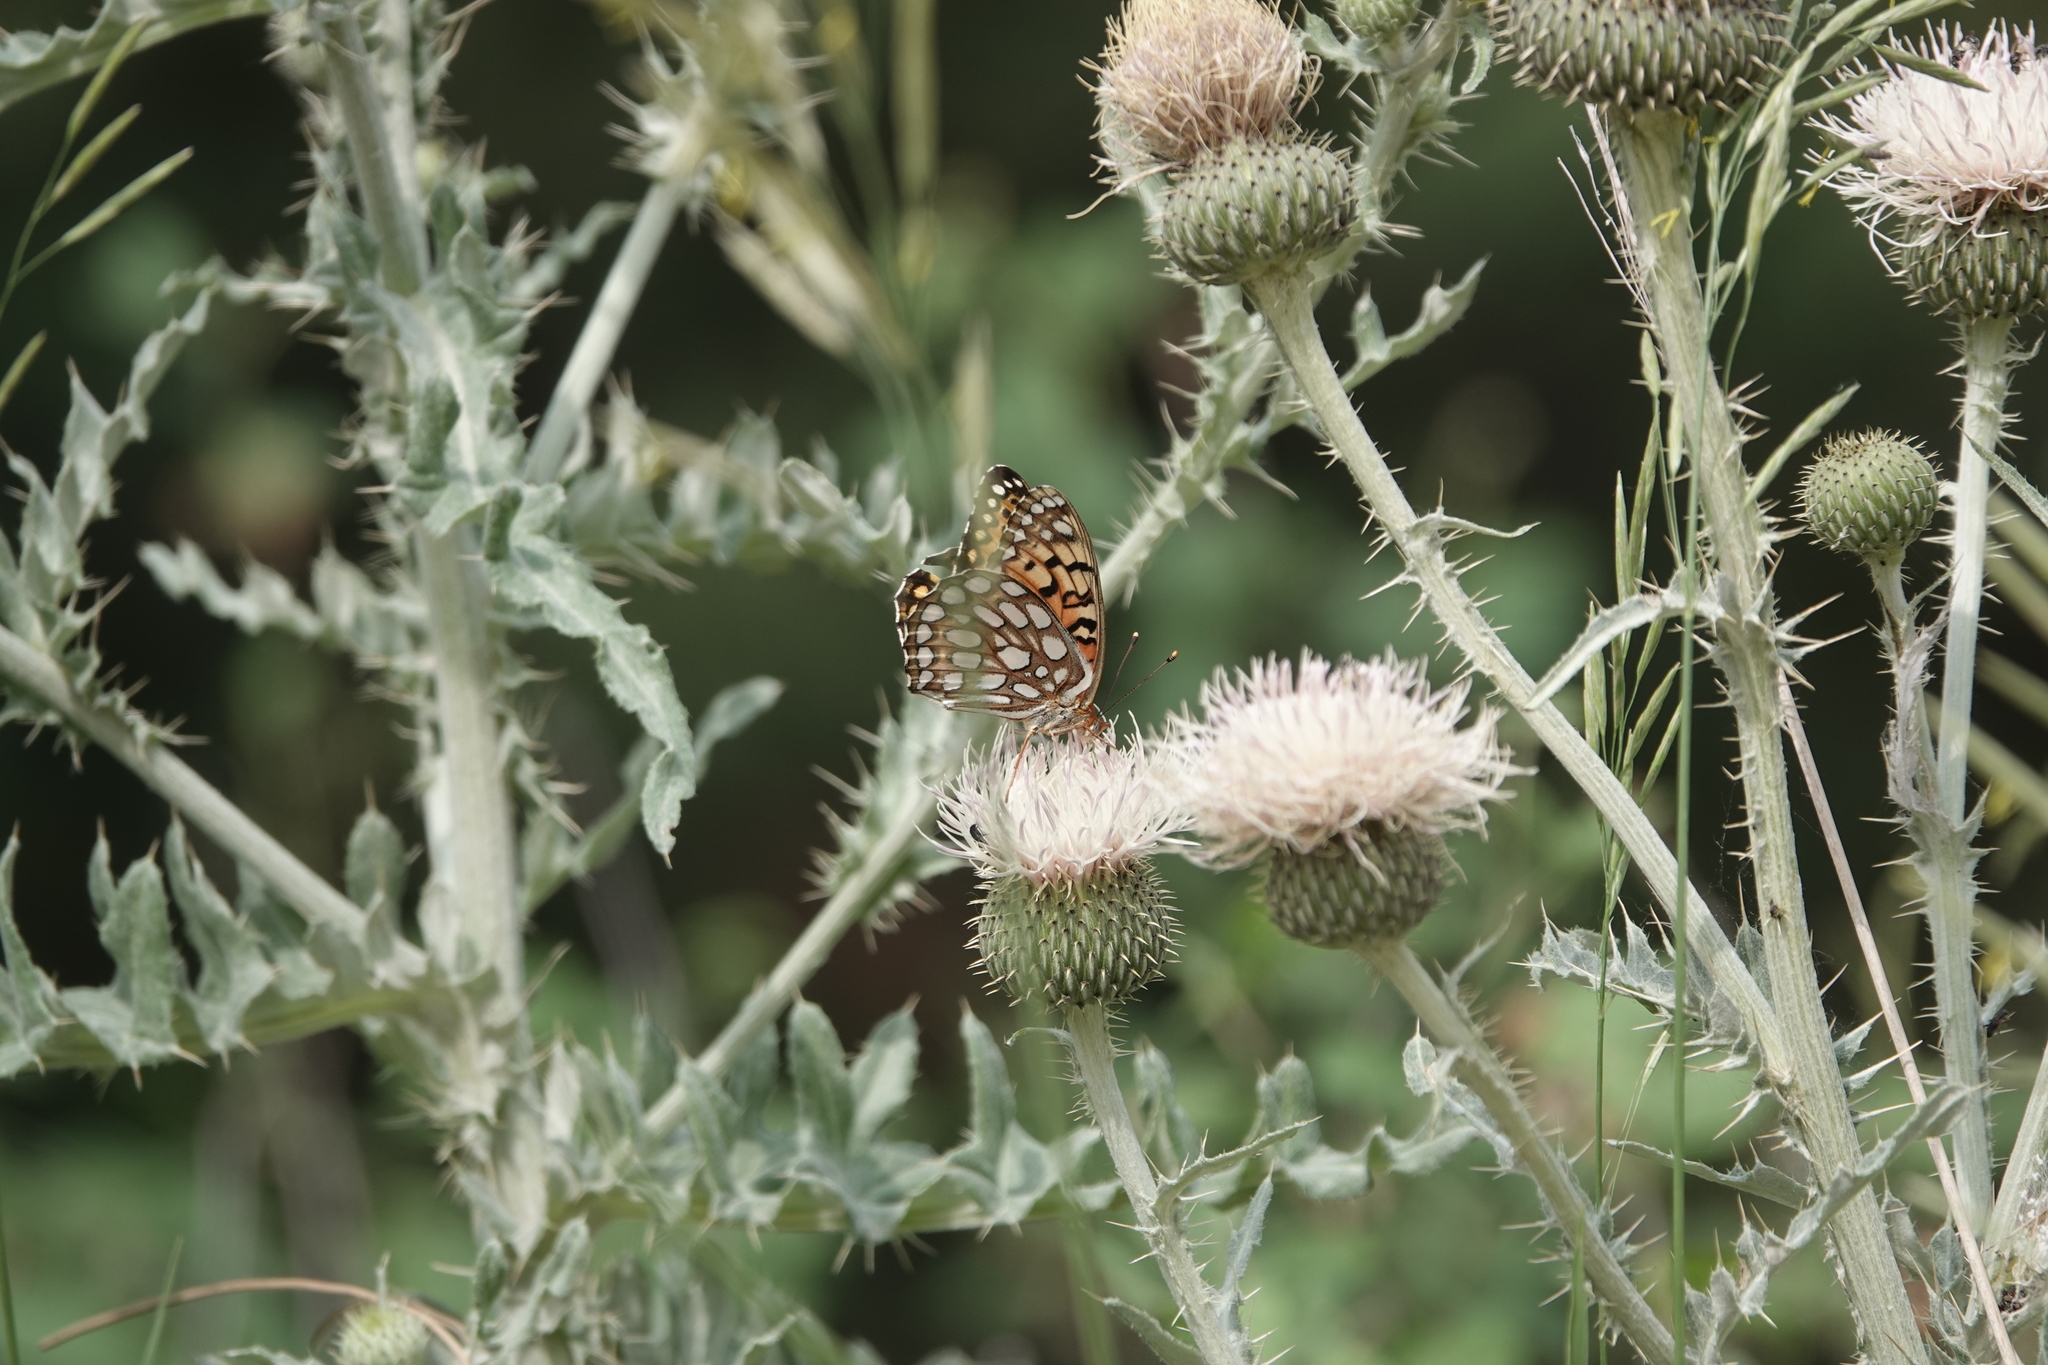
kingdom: Animalia
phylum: Arthropoda
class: Insecta
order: Lepidoptera
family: Nymphalidae
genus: Speyeria
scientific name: Speyeria edwardsii
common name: Edwards' fritillary
